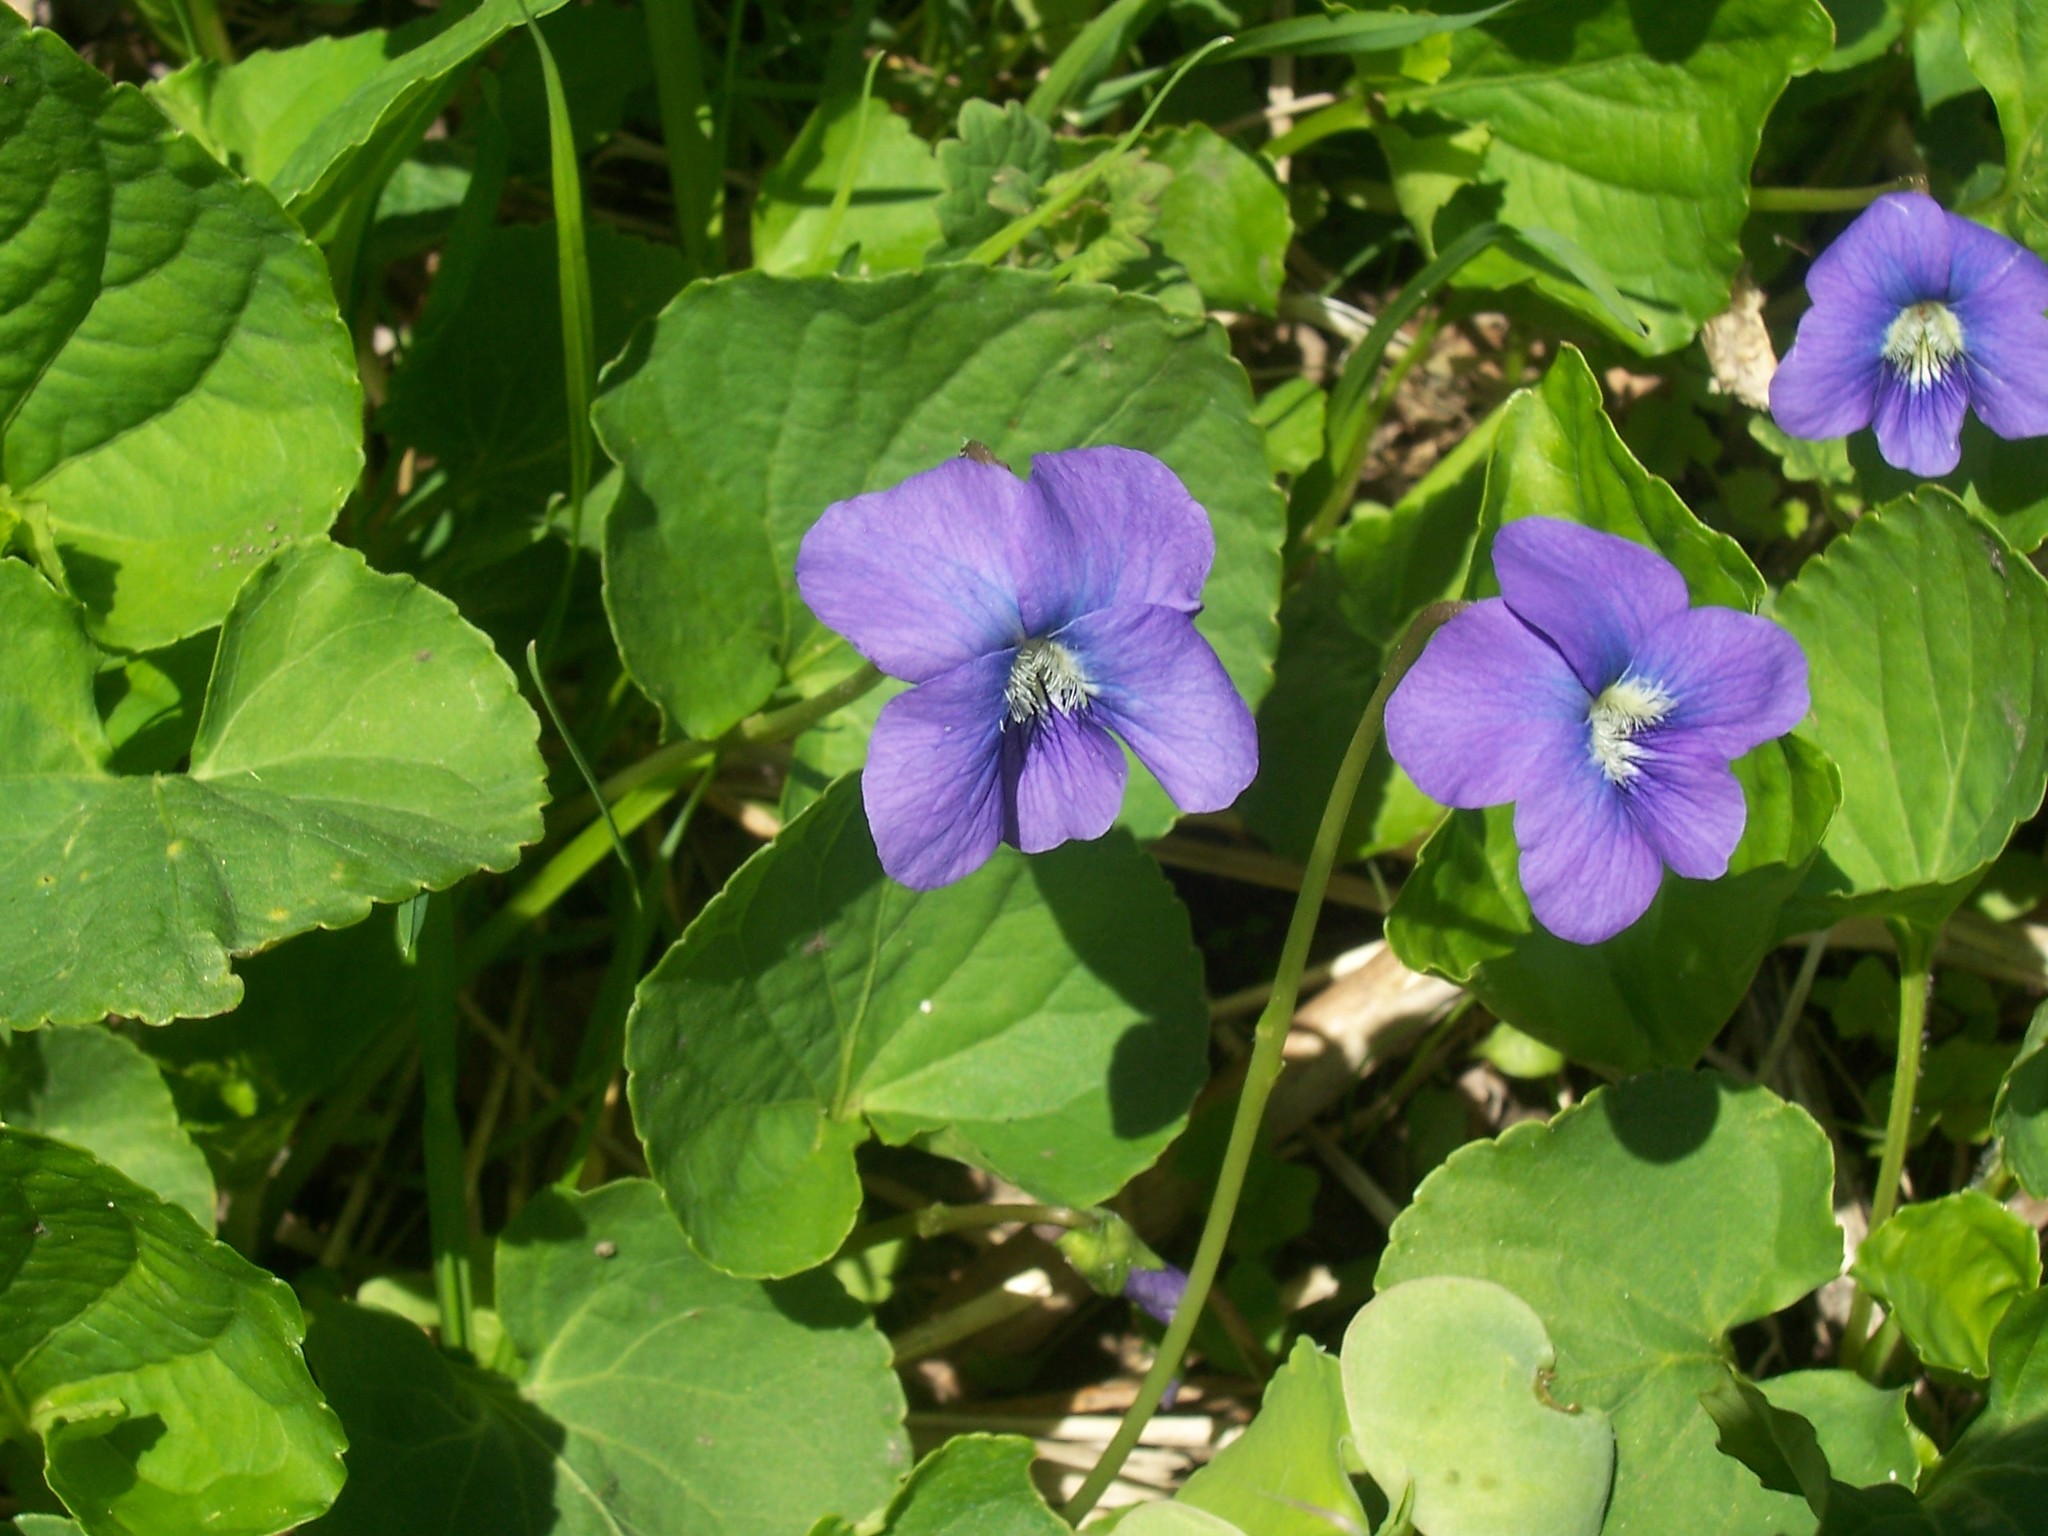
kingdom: Plantae
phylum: Tracheophyta
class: Magnoliopsida
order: Malpighiales
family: Violaceae
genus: Viola
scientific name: Viola sororia
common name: Dooryard violet
